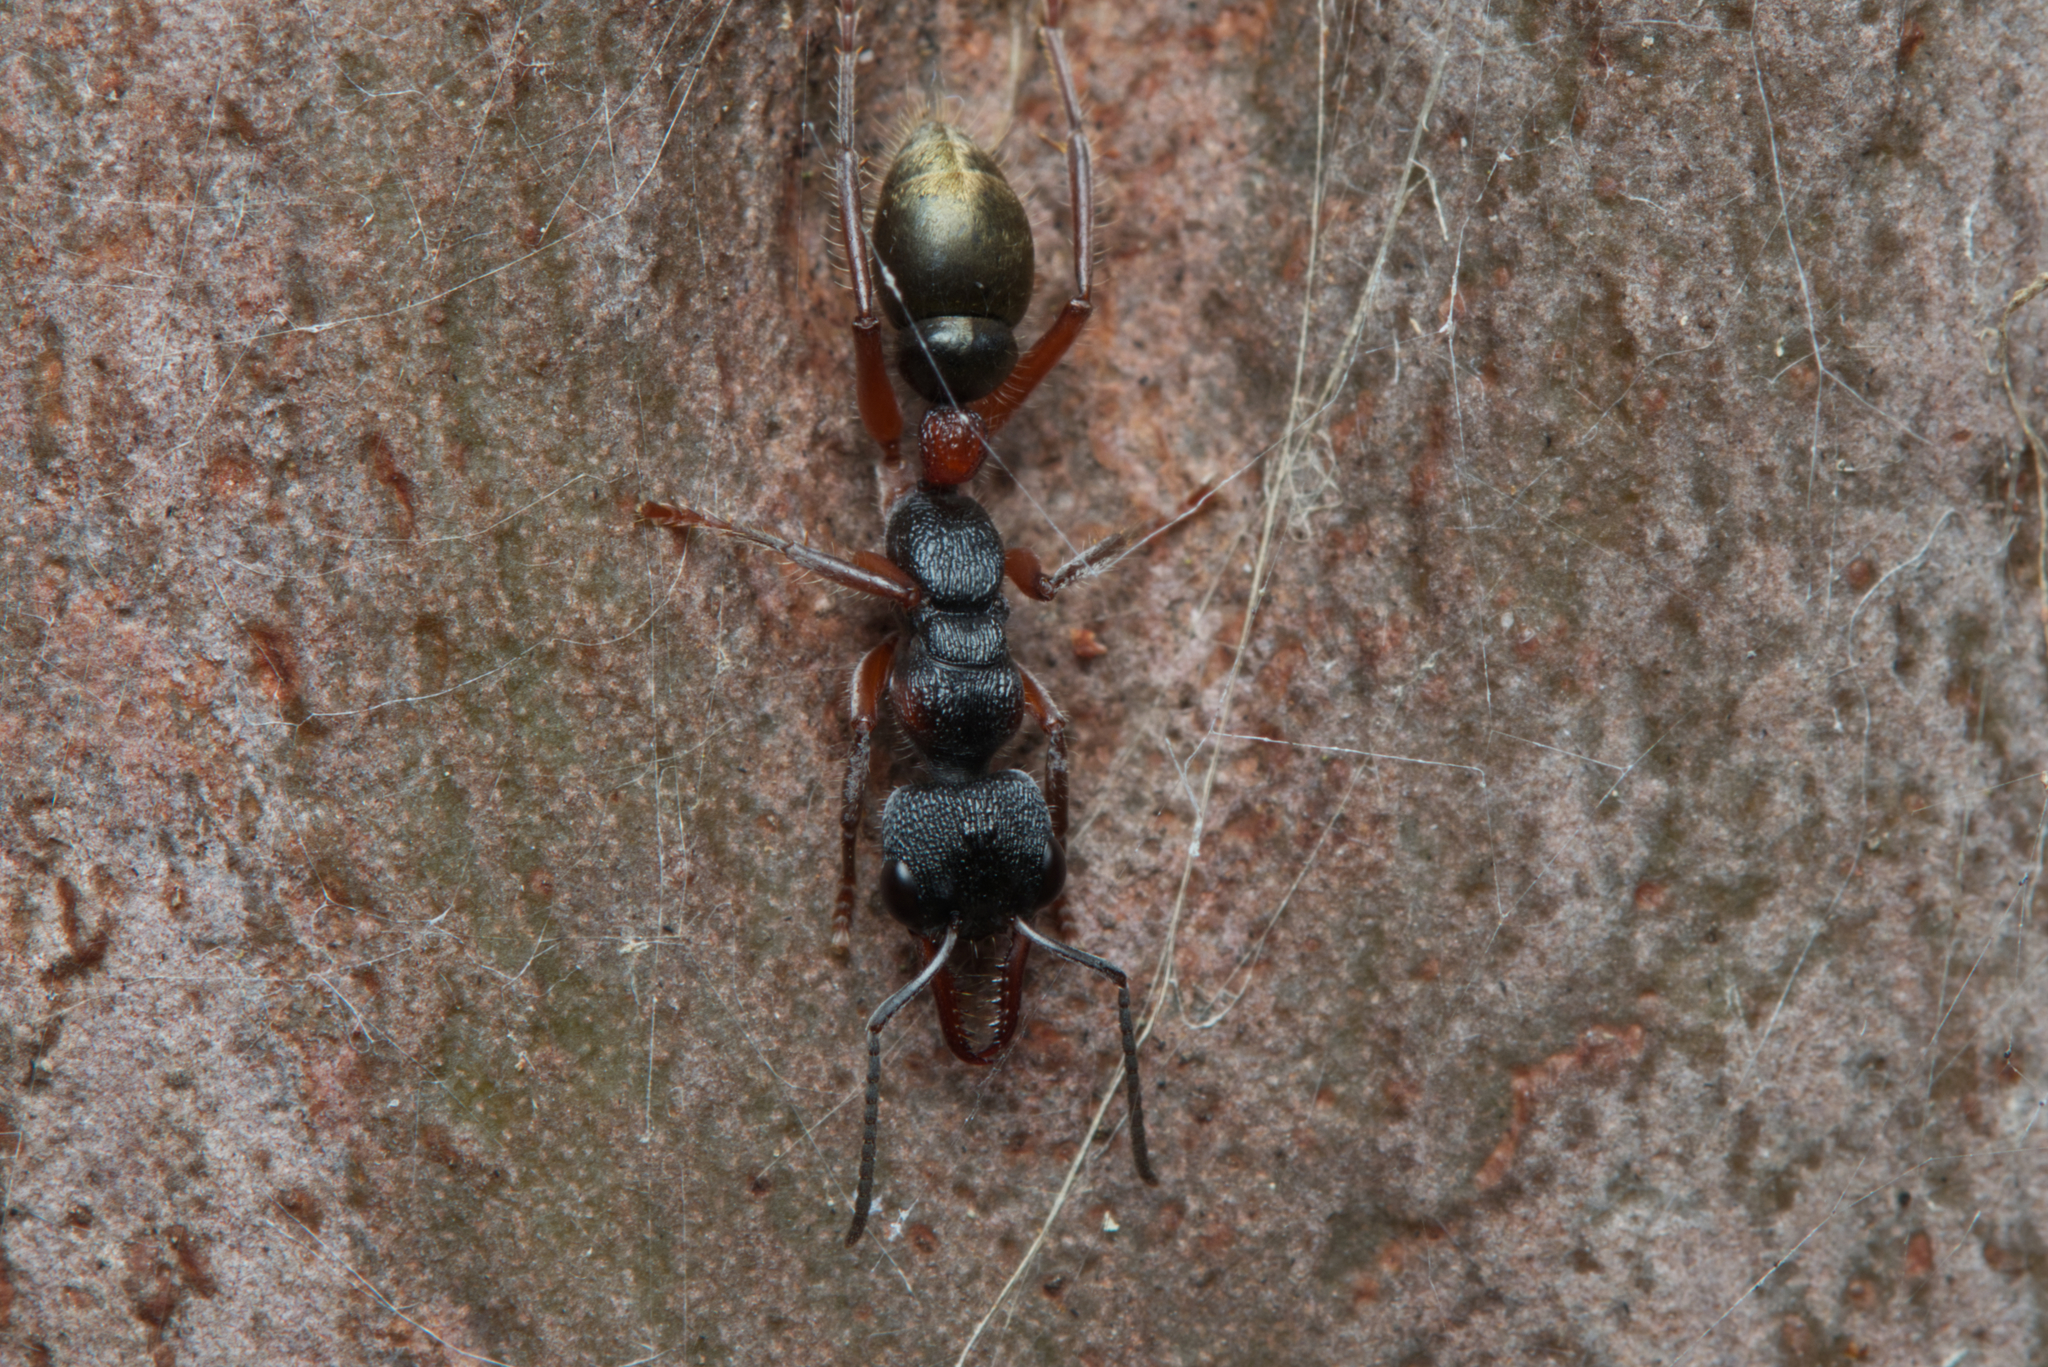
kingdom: Animalia
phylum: Arthropoda
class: Insecta
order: Hymenoptera
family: Formicidae
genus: Myrmecia
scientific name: Myrmecia chrysogaster
